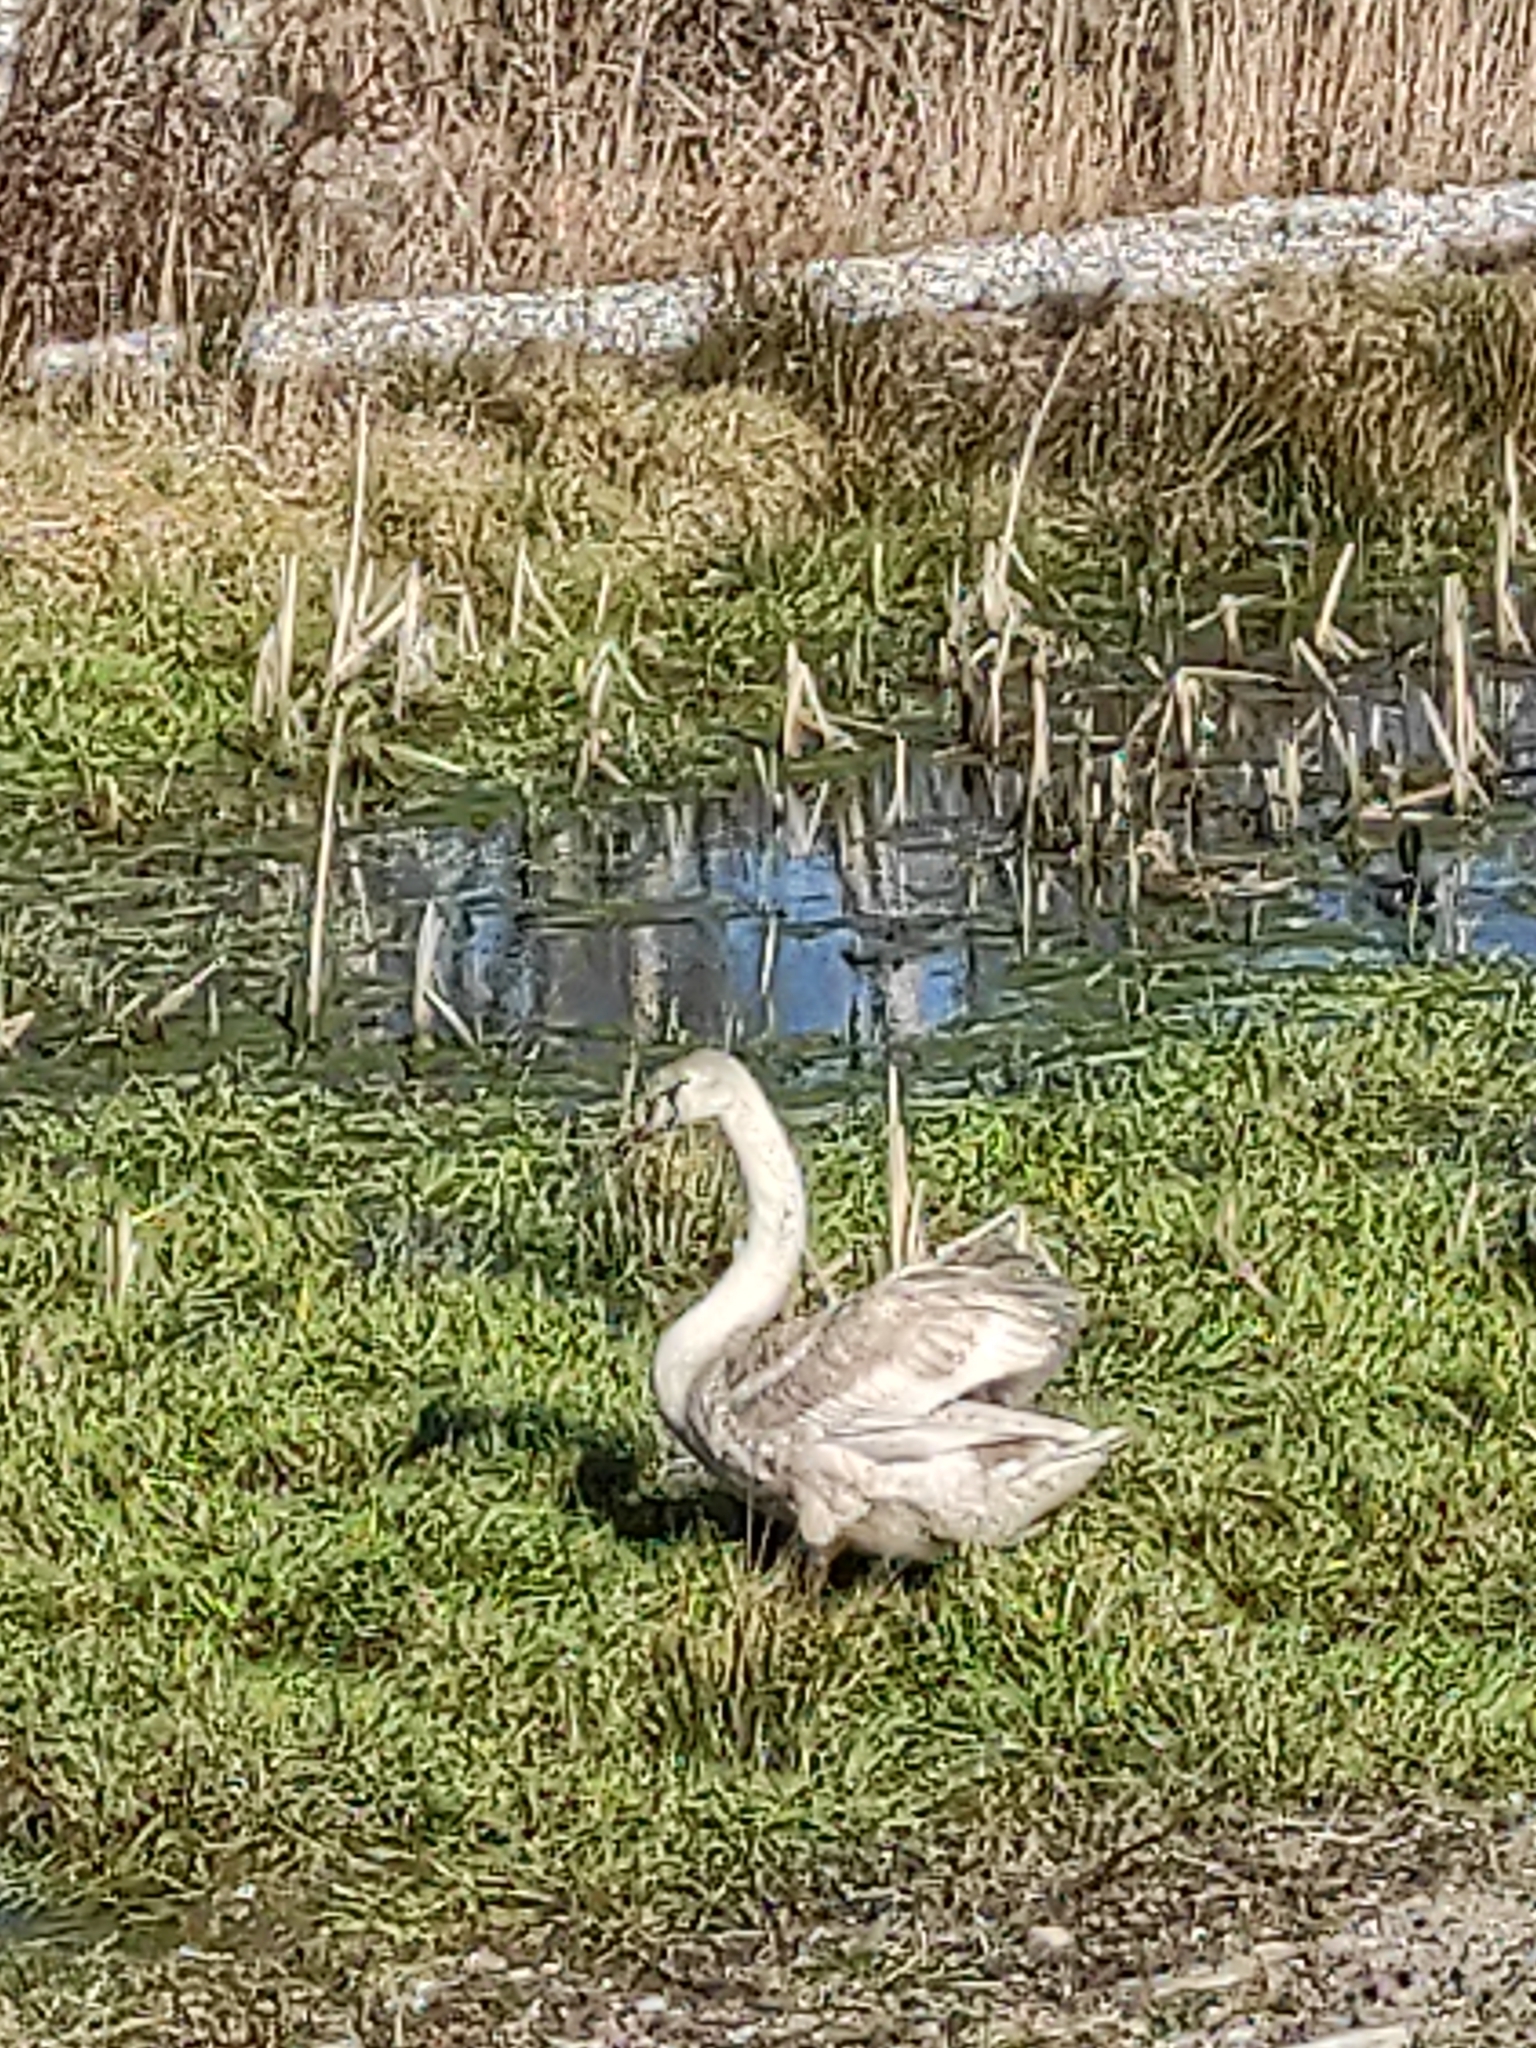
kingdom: Animalia
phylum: Chordata
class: Aves
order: Anseriformes
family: Anatidae
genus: Cygnus
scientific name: Cygnus olor
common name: Mute swan
